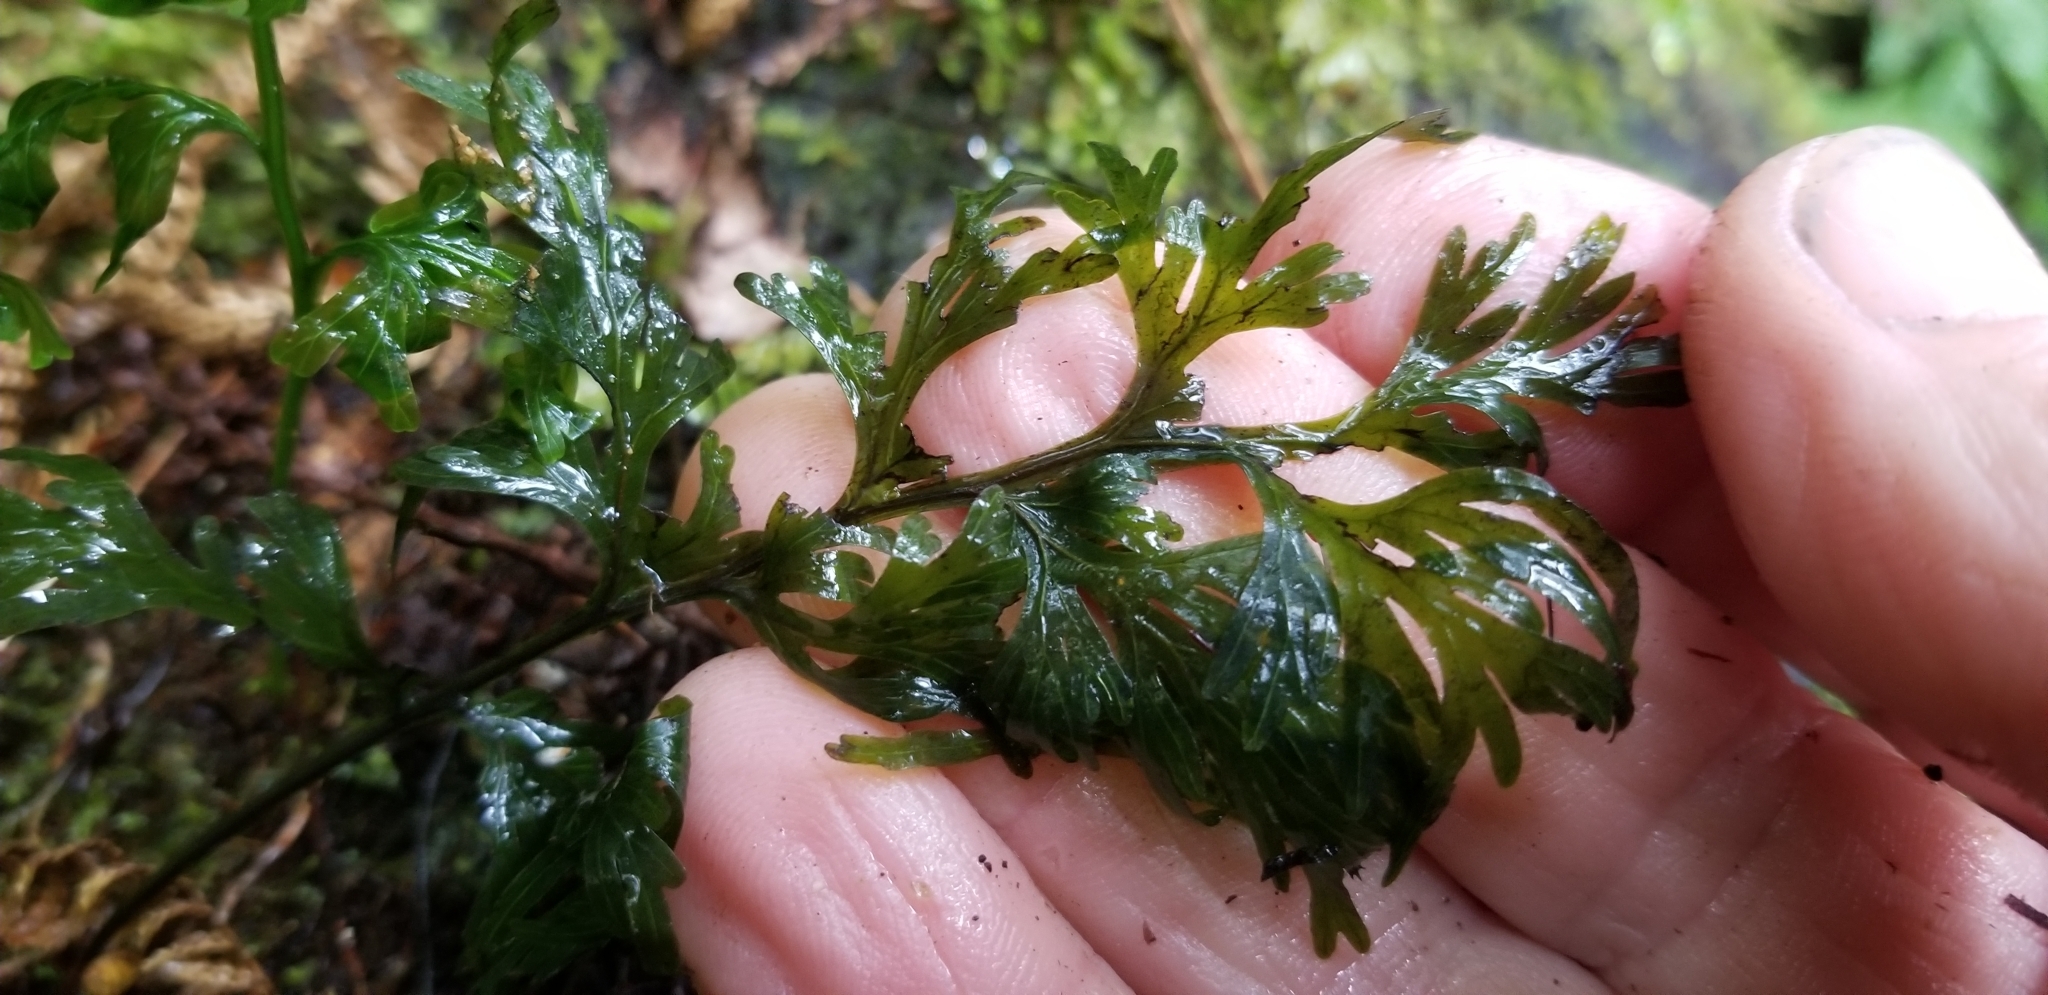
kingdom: Plantae
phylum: Tracheophyta
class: Polypodiopsida
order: Hymenophyllales
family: Hymenophyllaceae
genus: Hymenophyllum
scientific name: Hymenophyllum dilatatum
